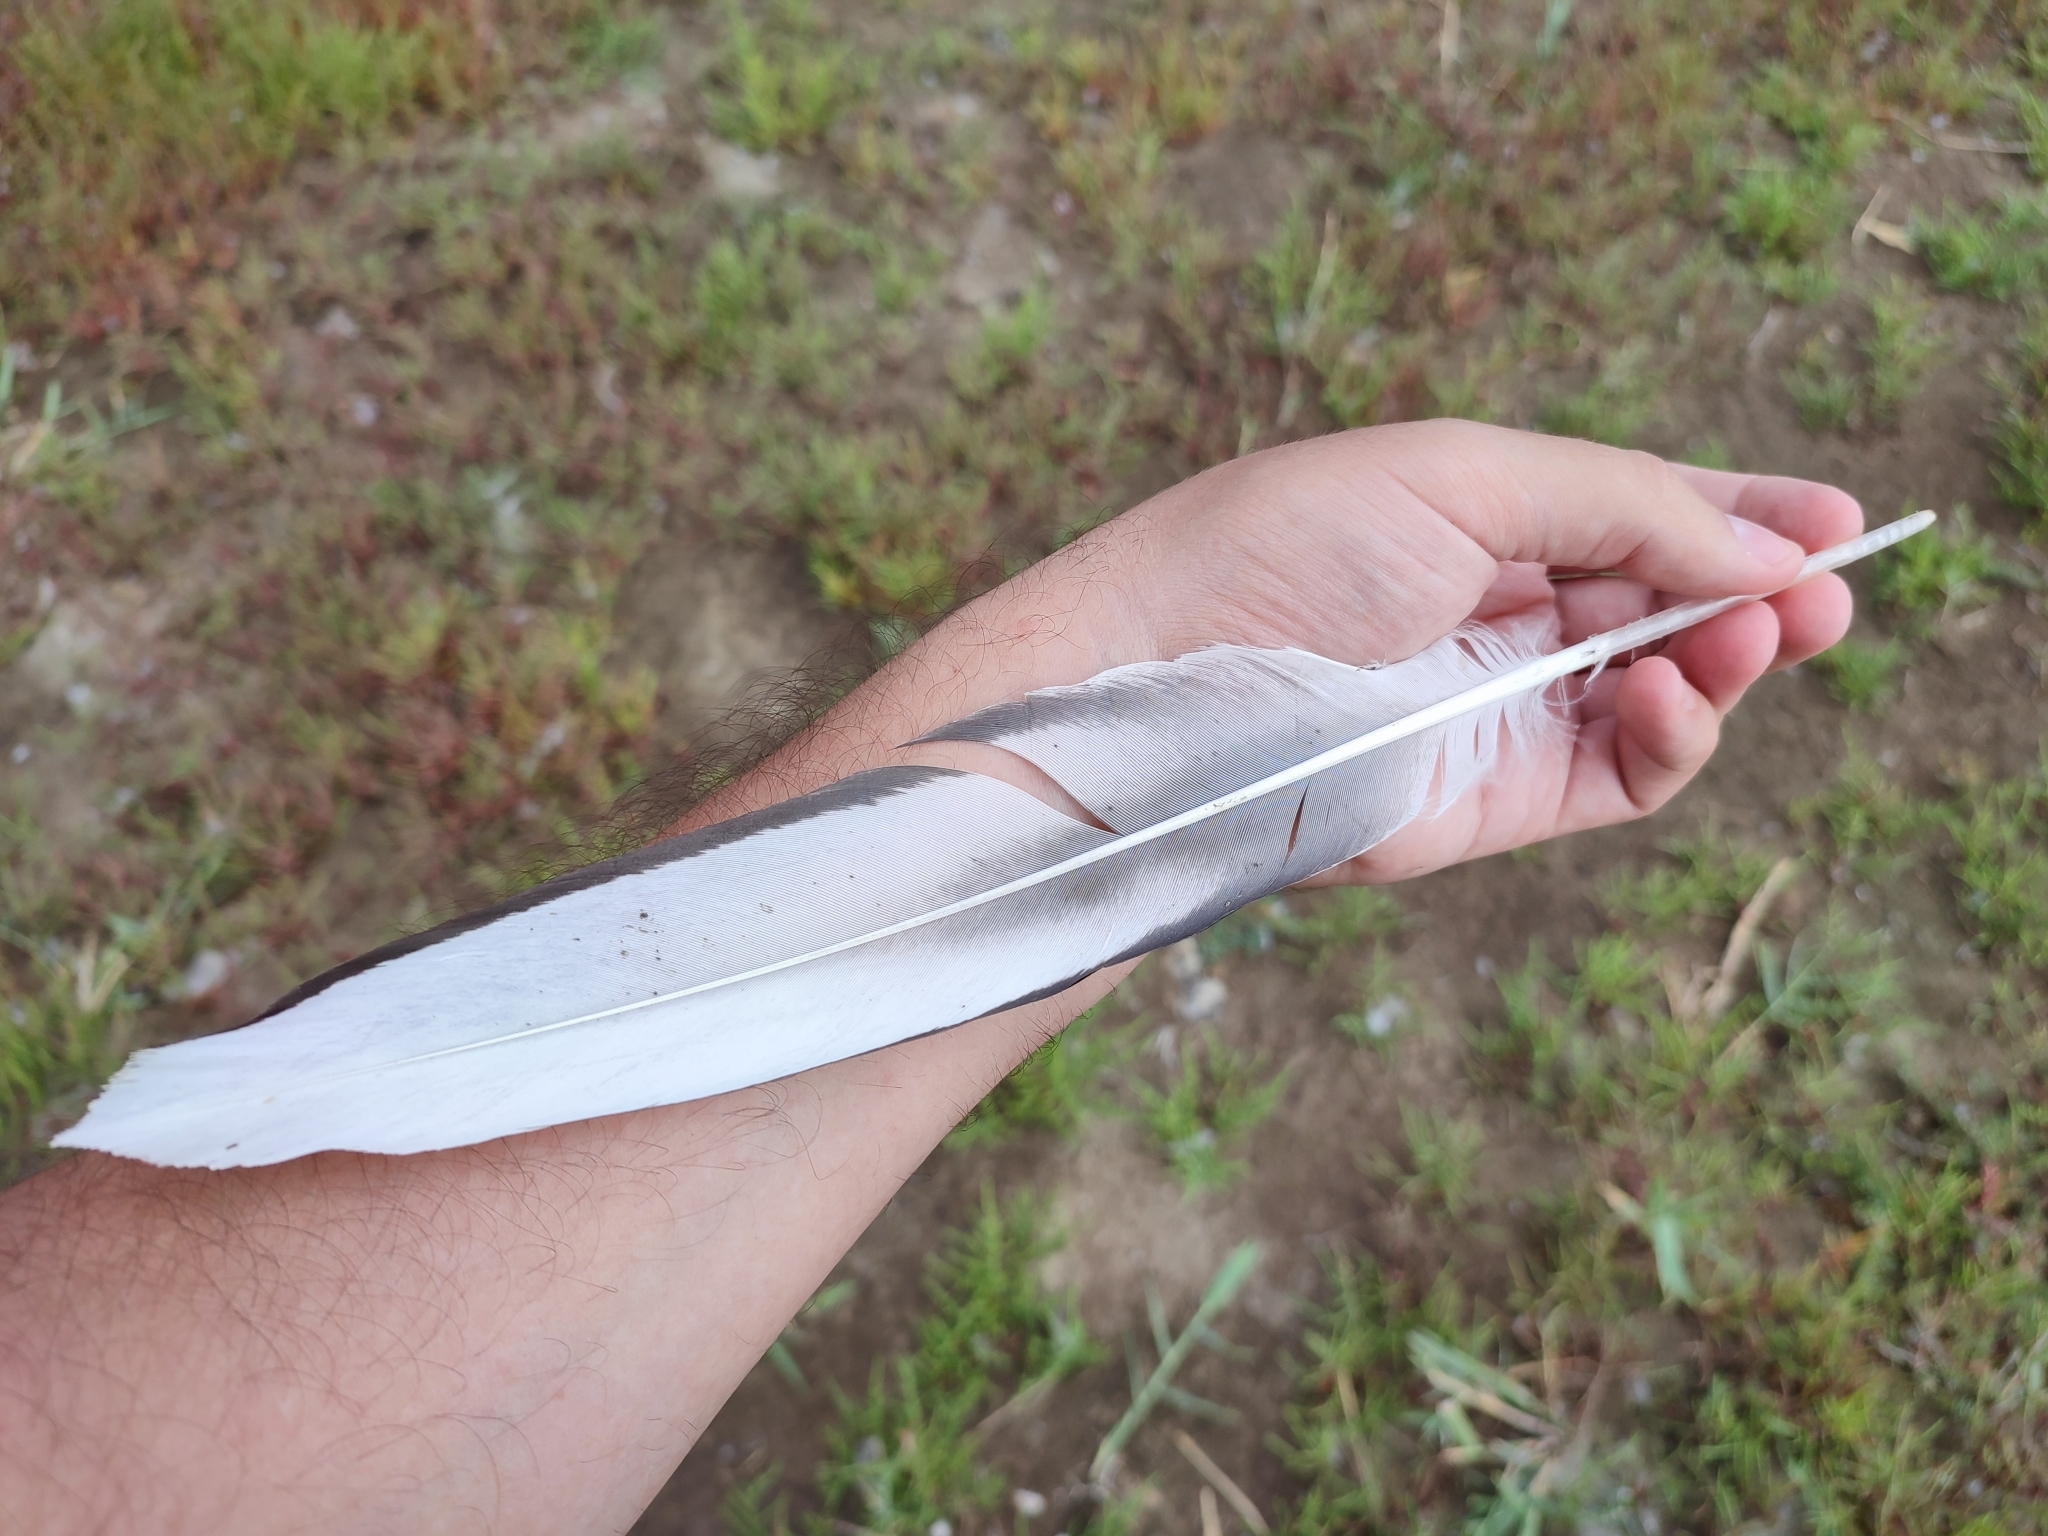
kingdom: Animalia
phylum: Chordata
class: Aves
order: Pelecaniformes
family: Pelecanidae
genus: Pelecanus
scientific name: Pelecanus onocrotalus
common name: Great white pelican
